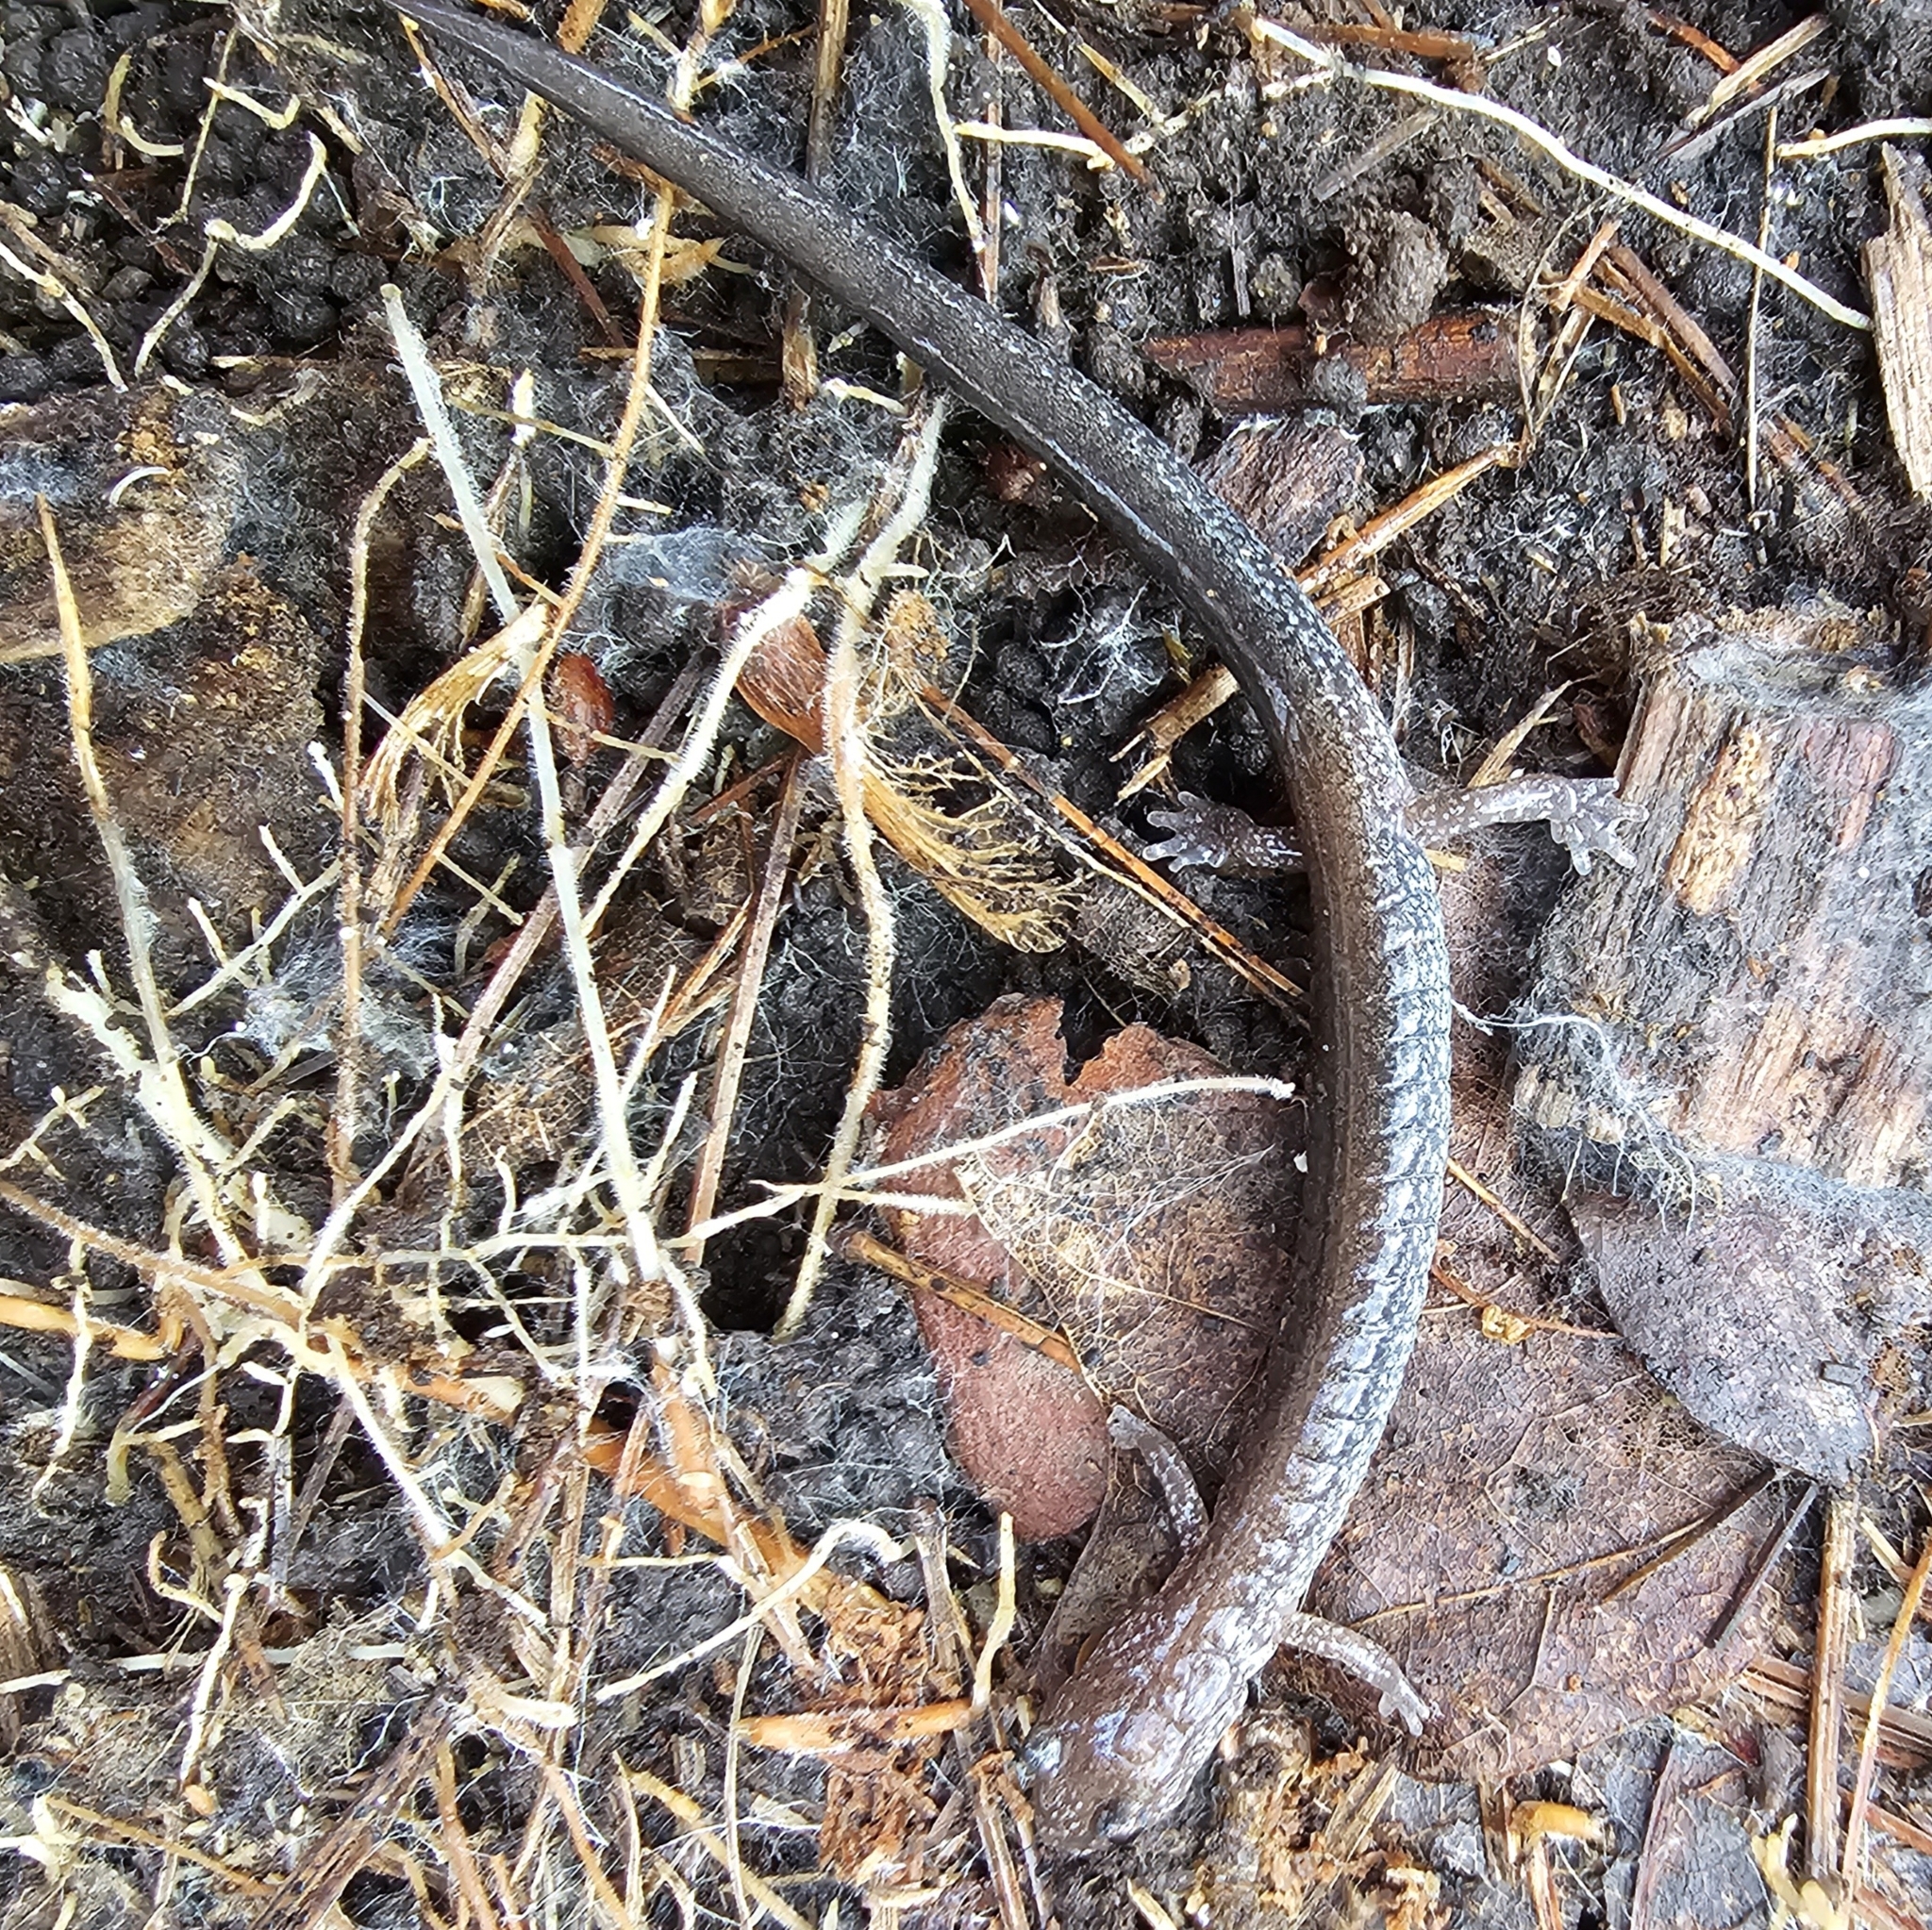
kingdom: Animalia
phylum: Chordata
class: Amphibia
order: Caudata
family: Plethodontidae
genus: Plethodon
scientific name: Plethodon cinereus
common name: Redback salamander
